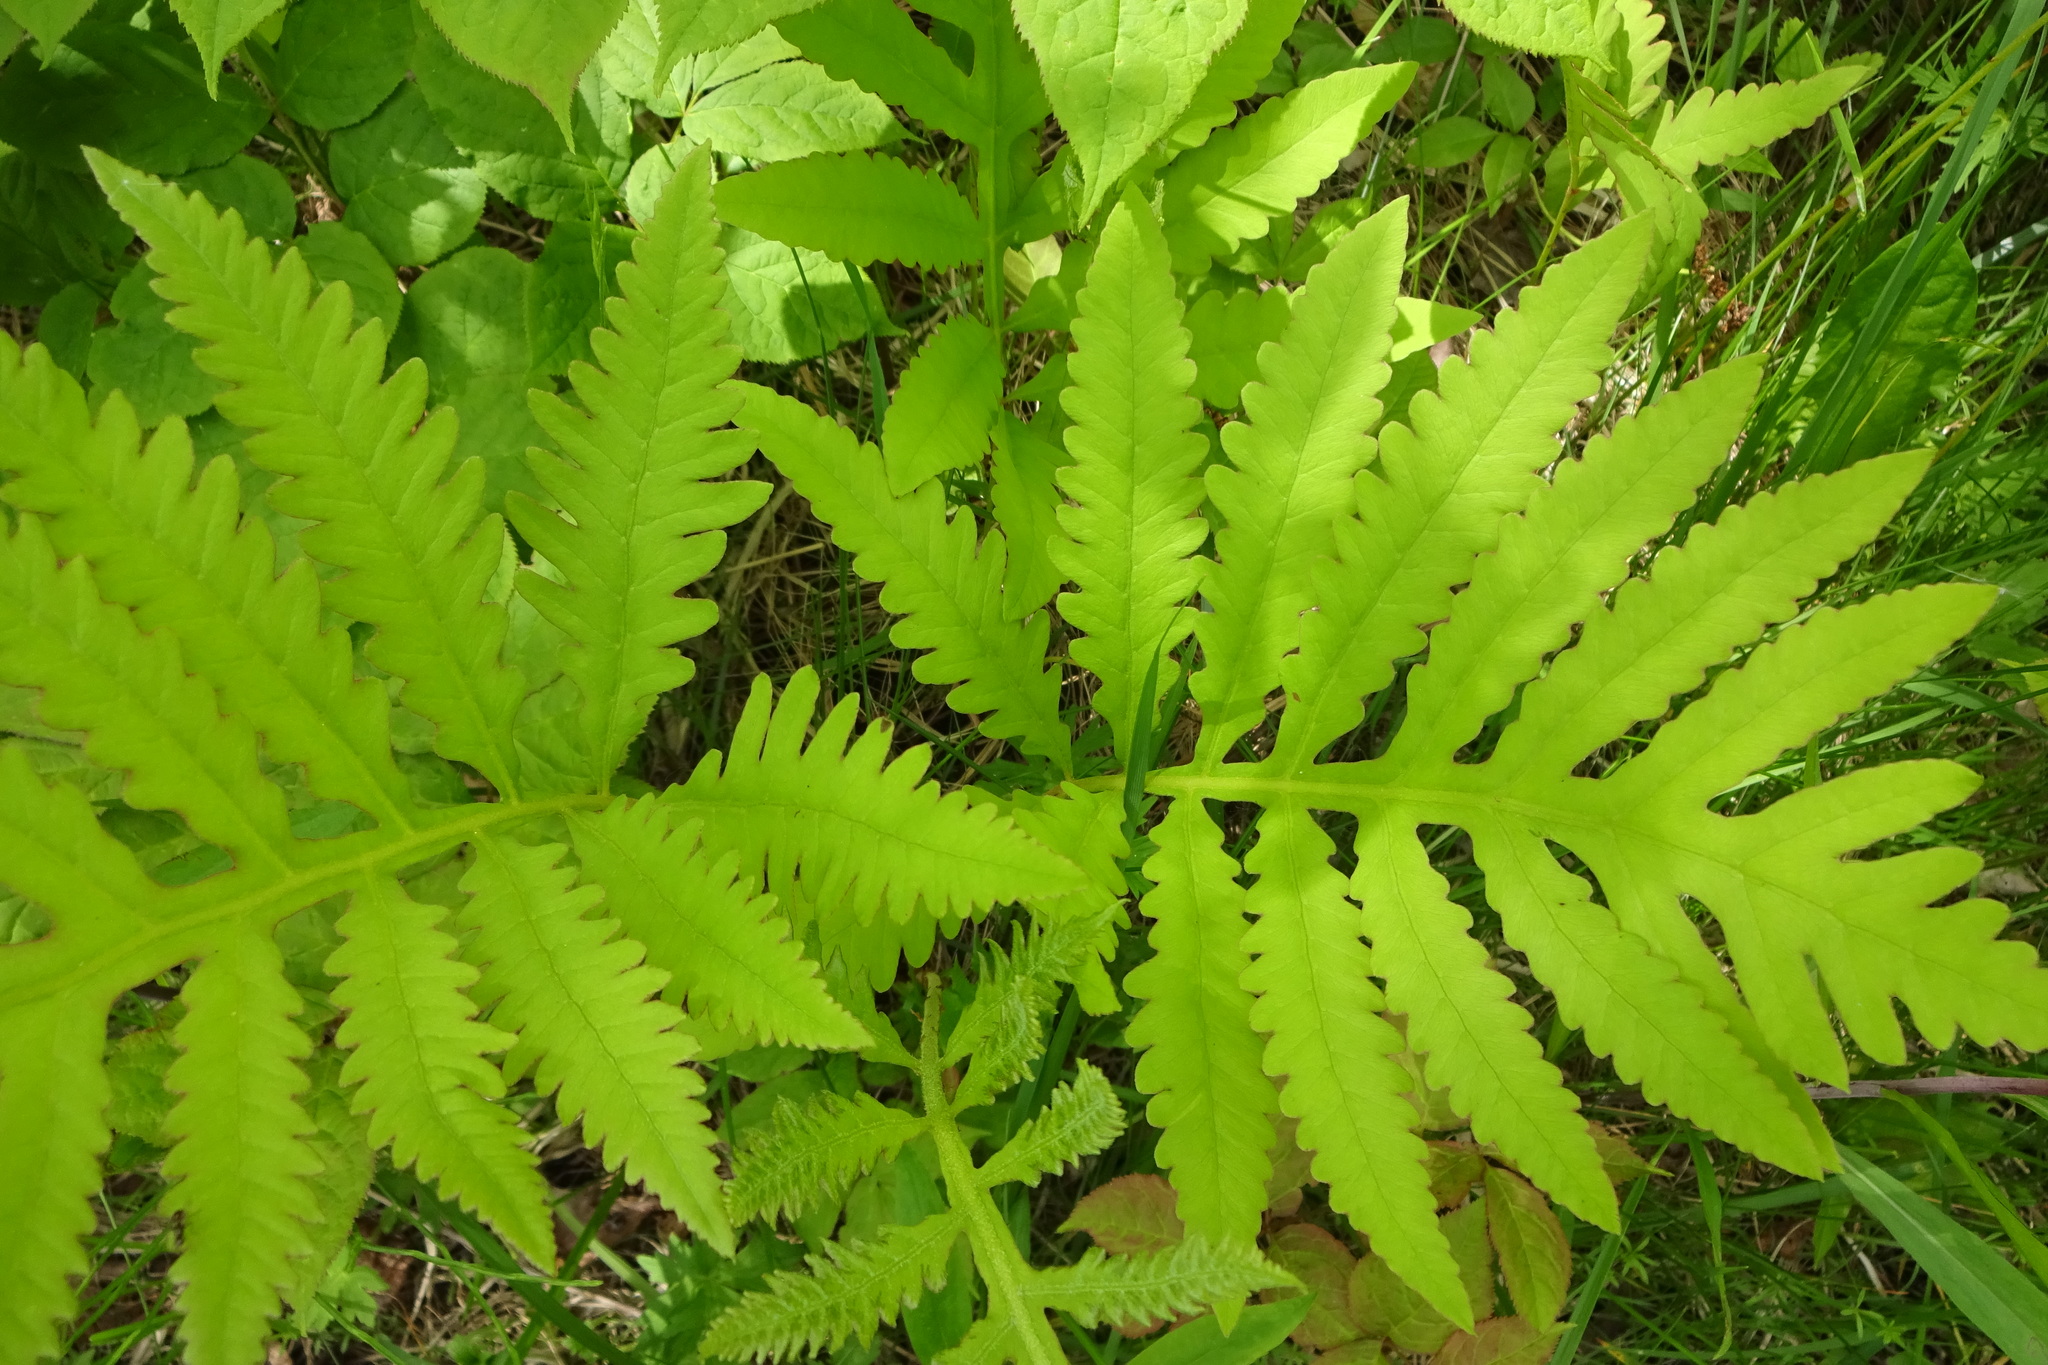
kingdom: Plantae
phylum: Tracheophyta
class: Polypodiopsida
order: Polypodiales
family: Onocleaceae
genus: Onoclea
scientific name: Onoclea sensibilis
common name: Sensitive fern
